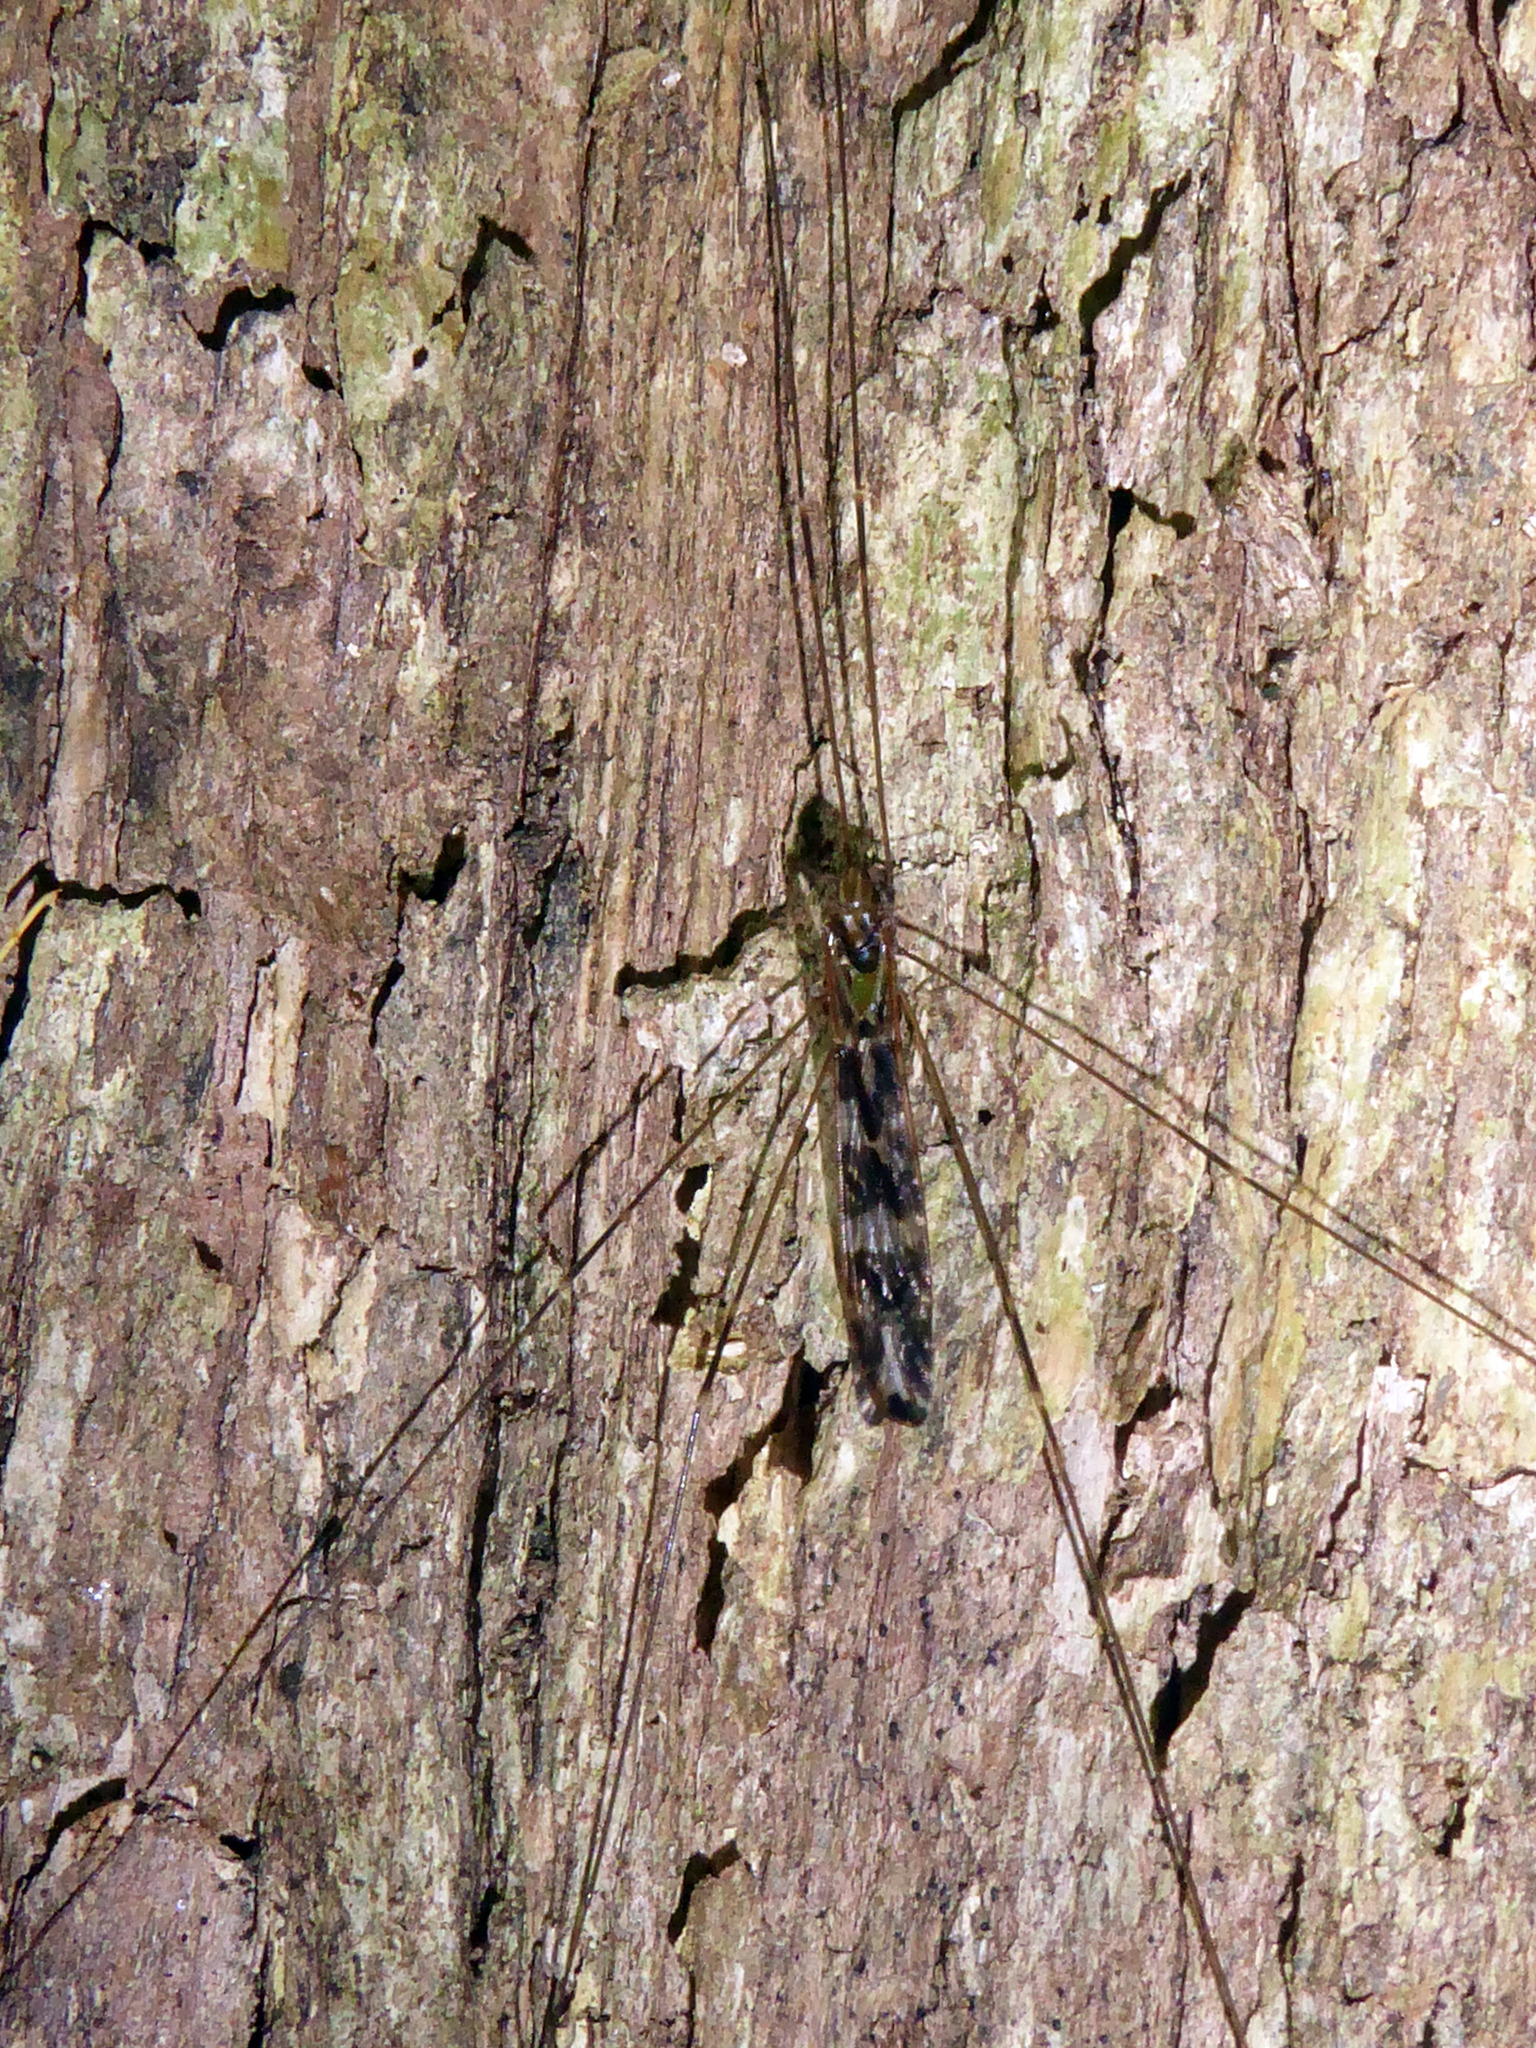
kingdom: Animalia
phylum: Arthropoda
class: Insecta
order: Diptera
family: Limoniidae
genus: Discobola
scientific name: Discobola dohrni
